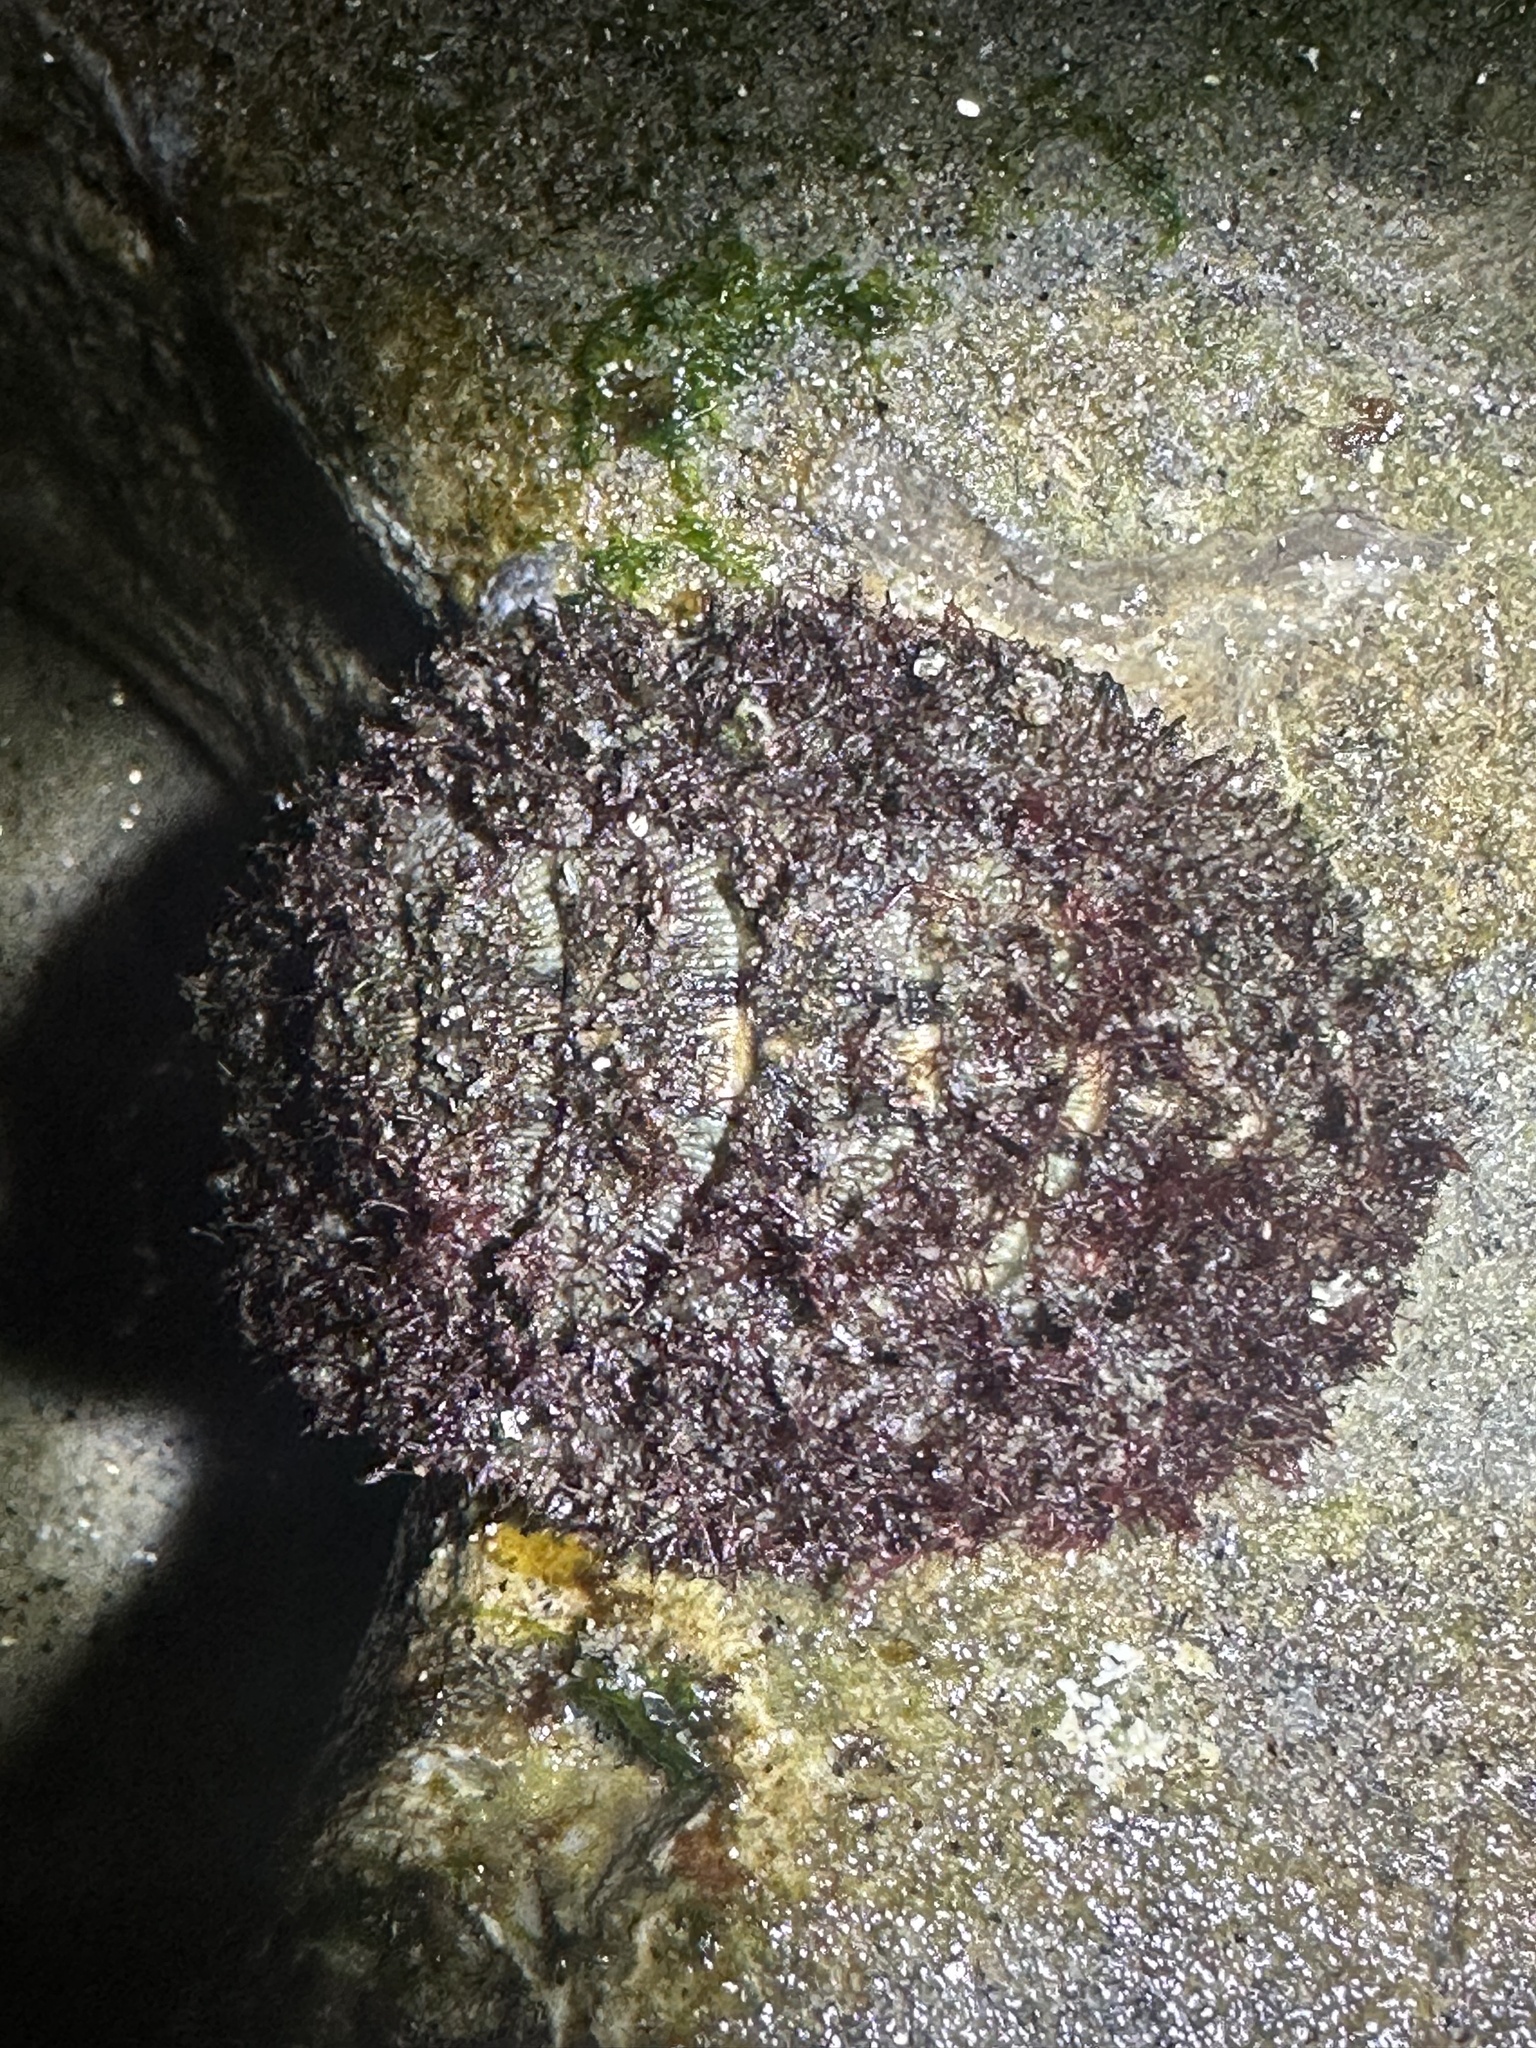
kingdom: Animalia
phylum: Mollusca
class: Polyplacophora
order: Chitonida
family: Mopaliidae
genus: Mopalia
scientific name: Mopalia muscosa
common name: Mossy chiton
